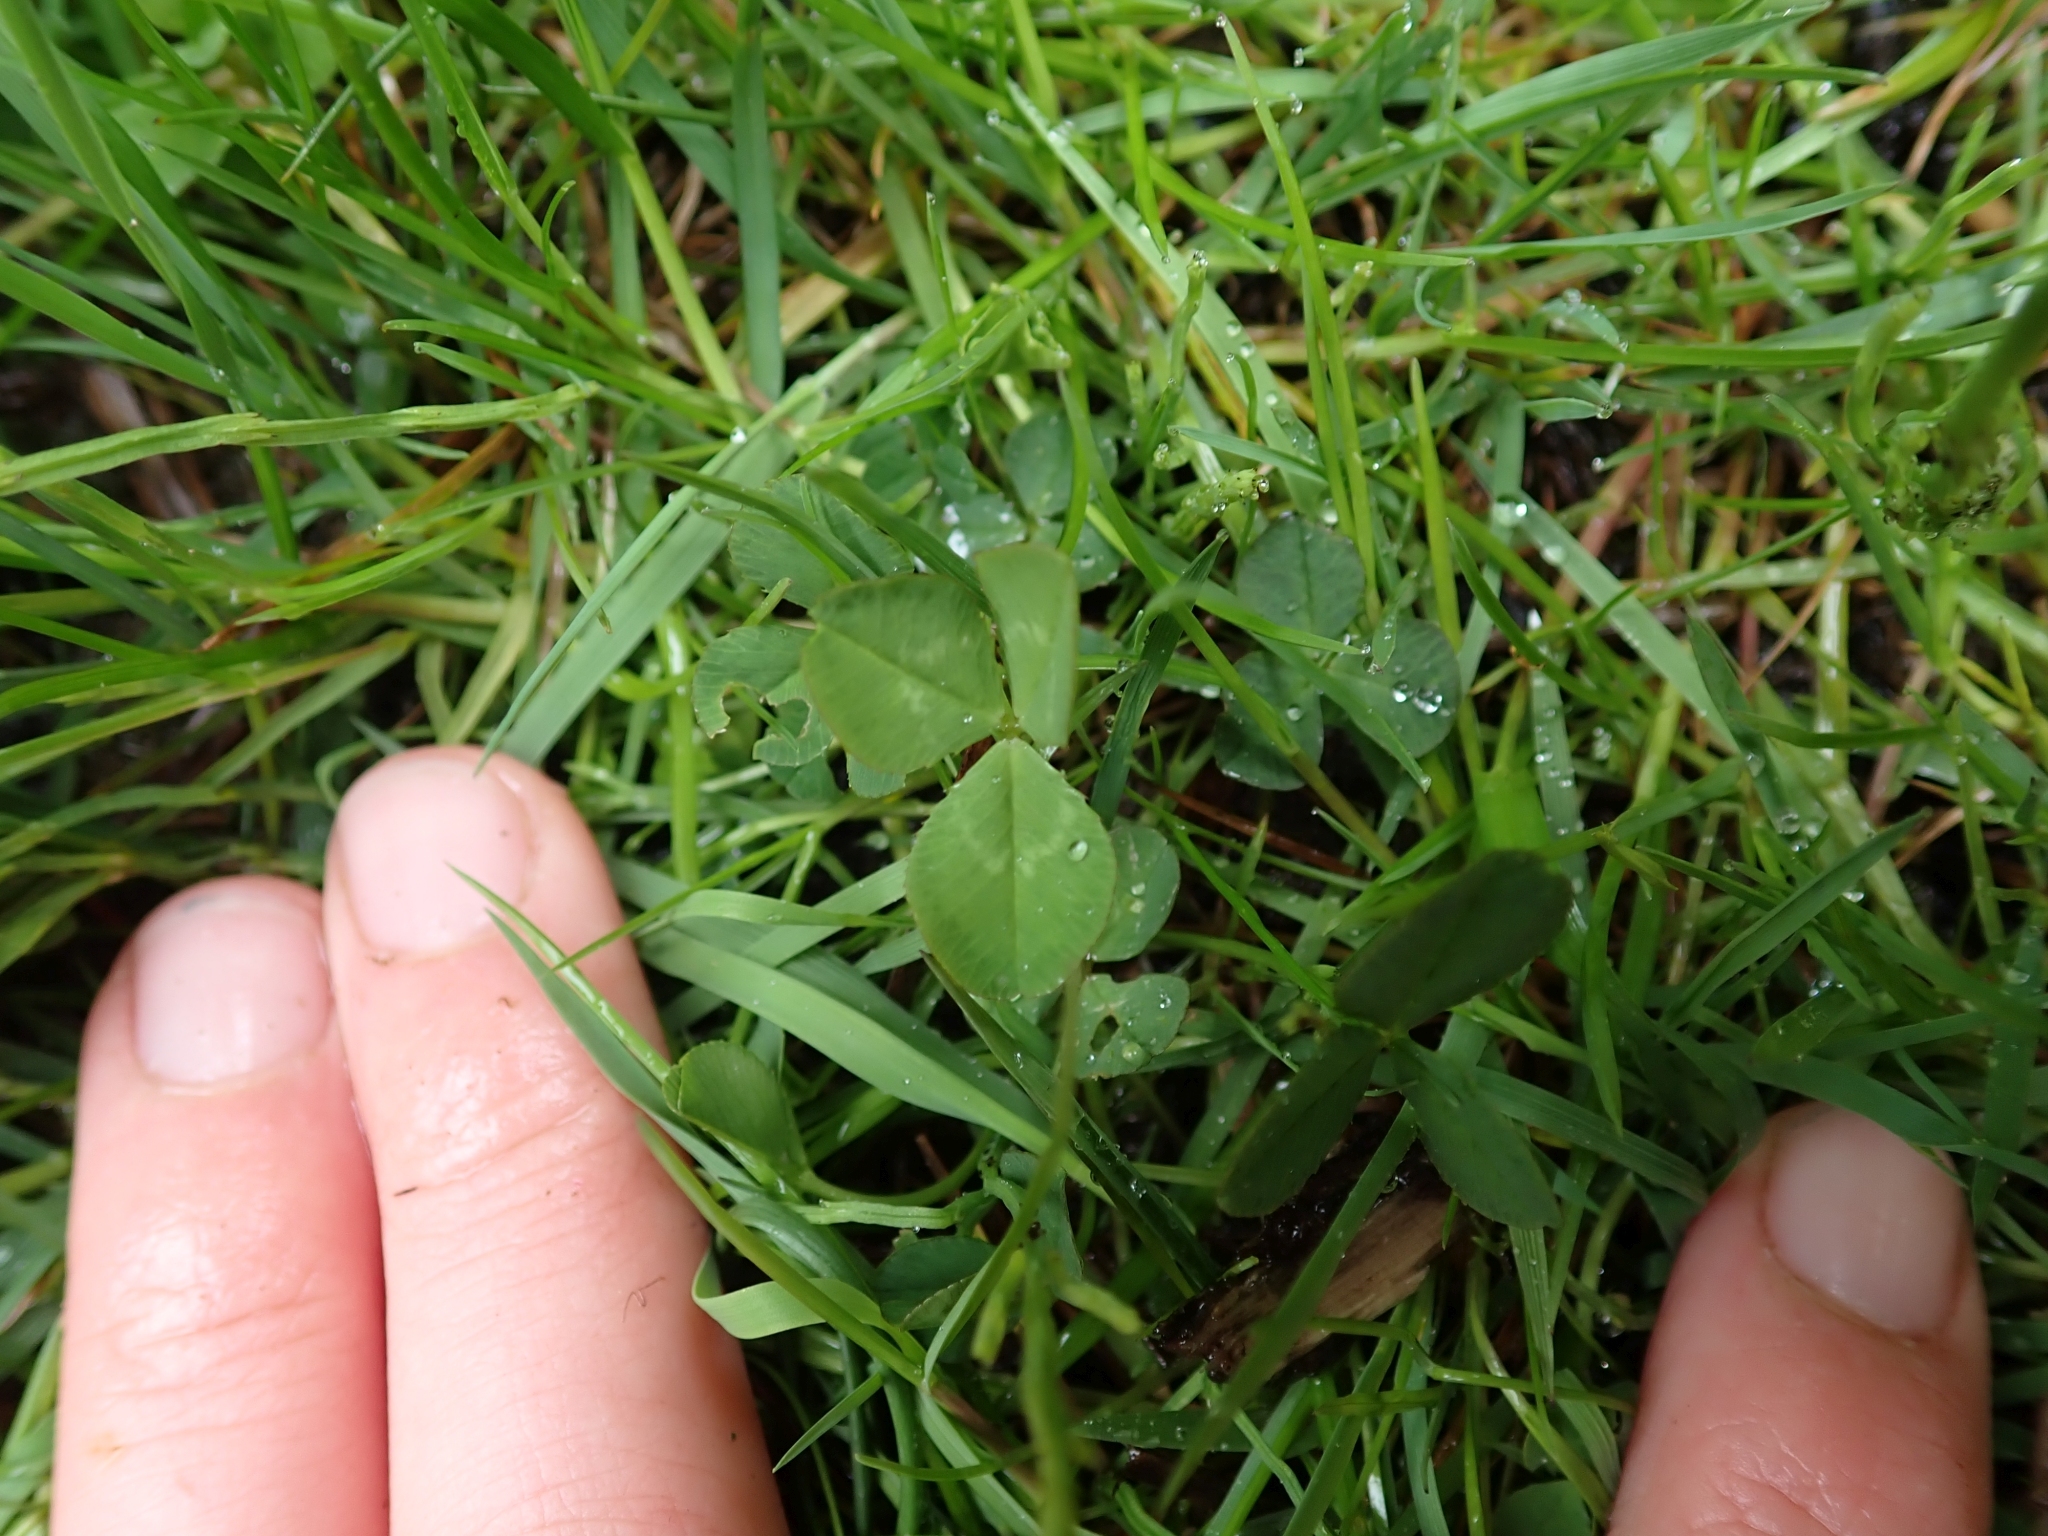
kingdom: Plantae
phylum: Tracheophyta
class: Magnoliopsida
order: Fabales
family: Fabaceae
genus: Trifolium
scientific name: Trifolium repens
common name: White clover
